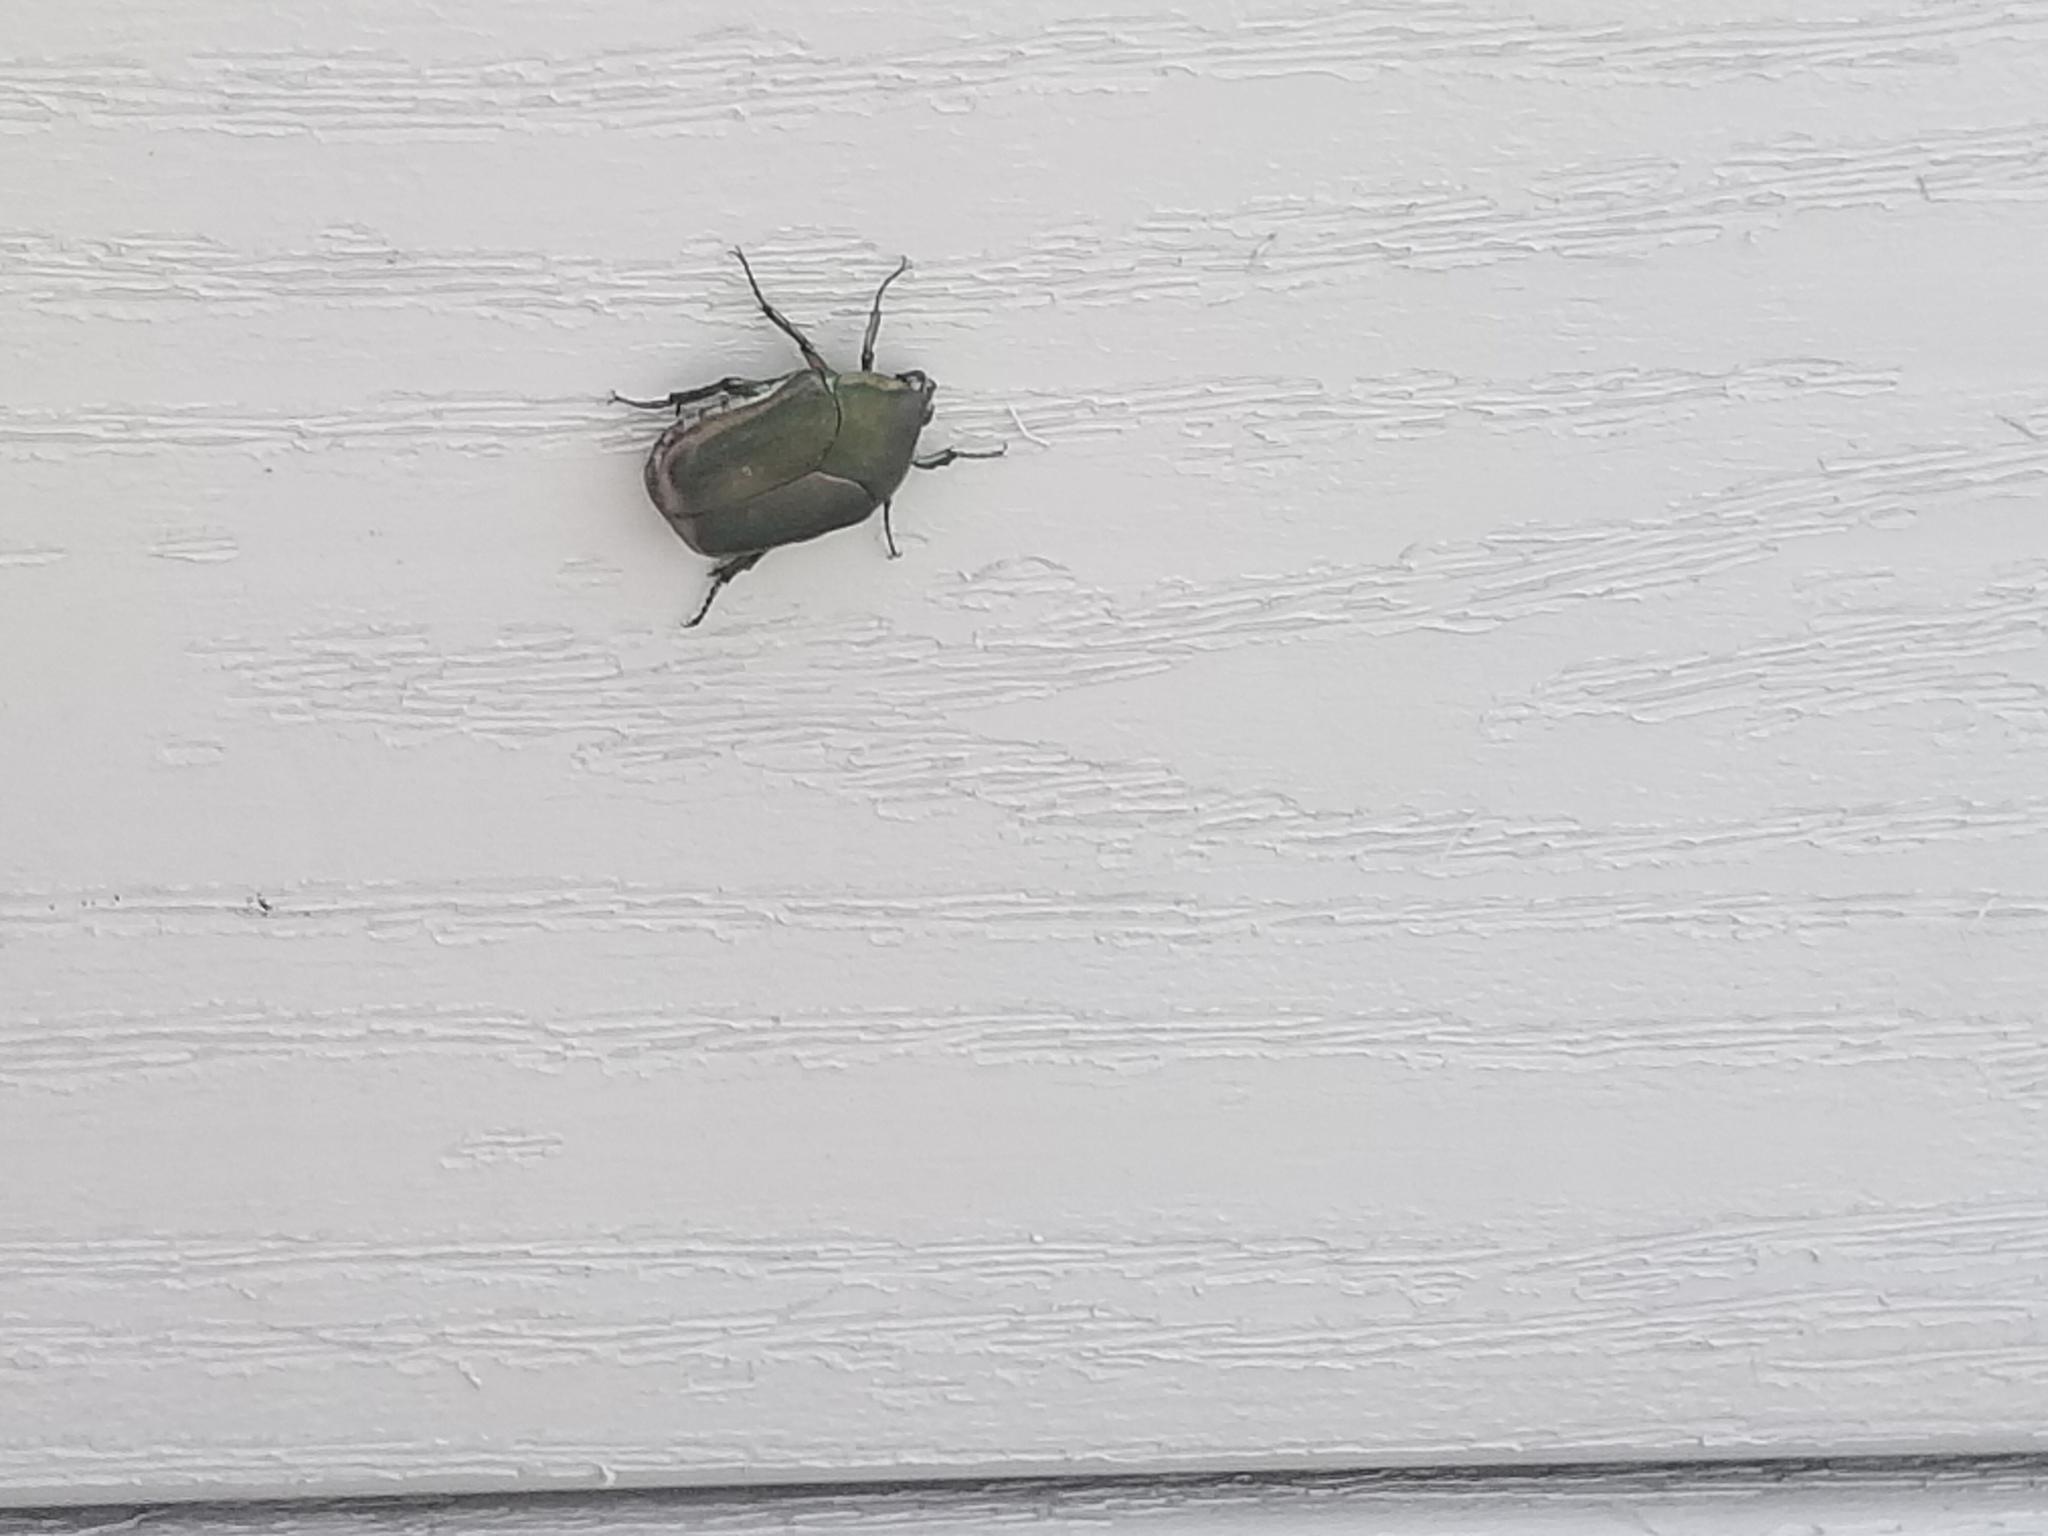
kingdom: Animalia
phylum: Arthropoda
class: Insecta
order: Coleoptera
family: Scarabaeidae
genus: Cotinis
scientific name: Cotinis nitida
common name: Common green june beetle
